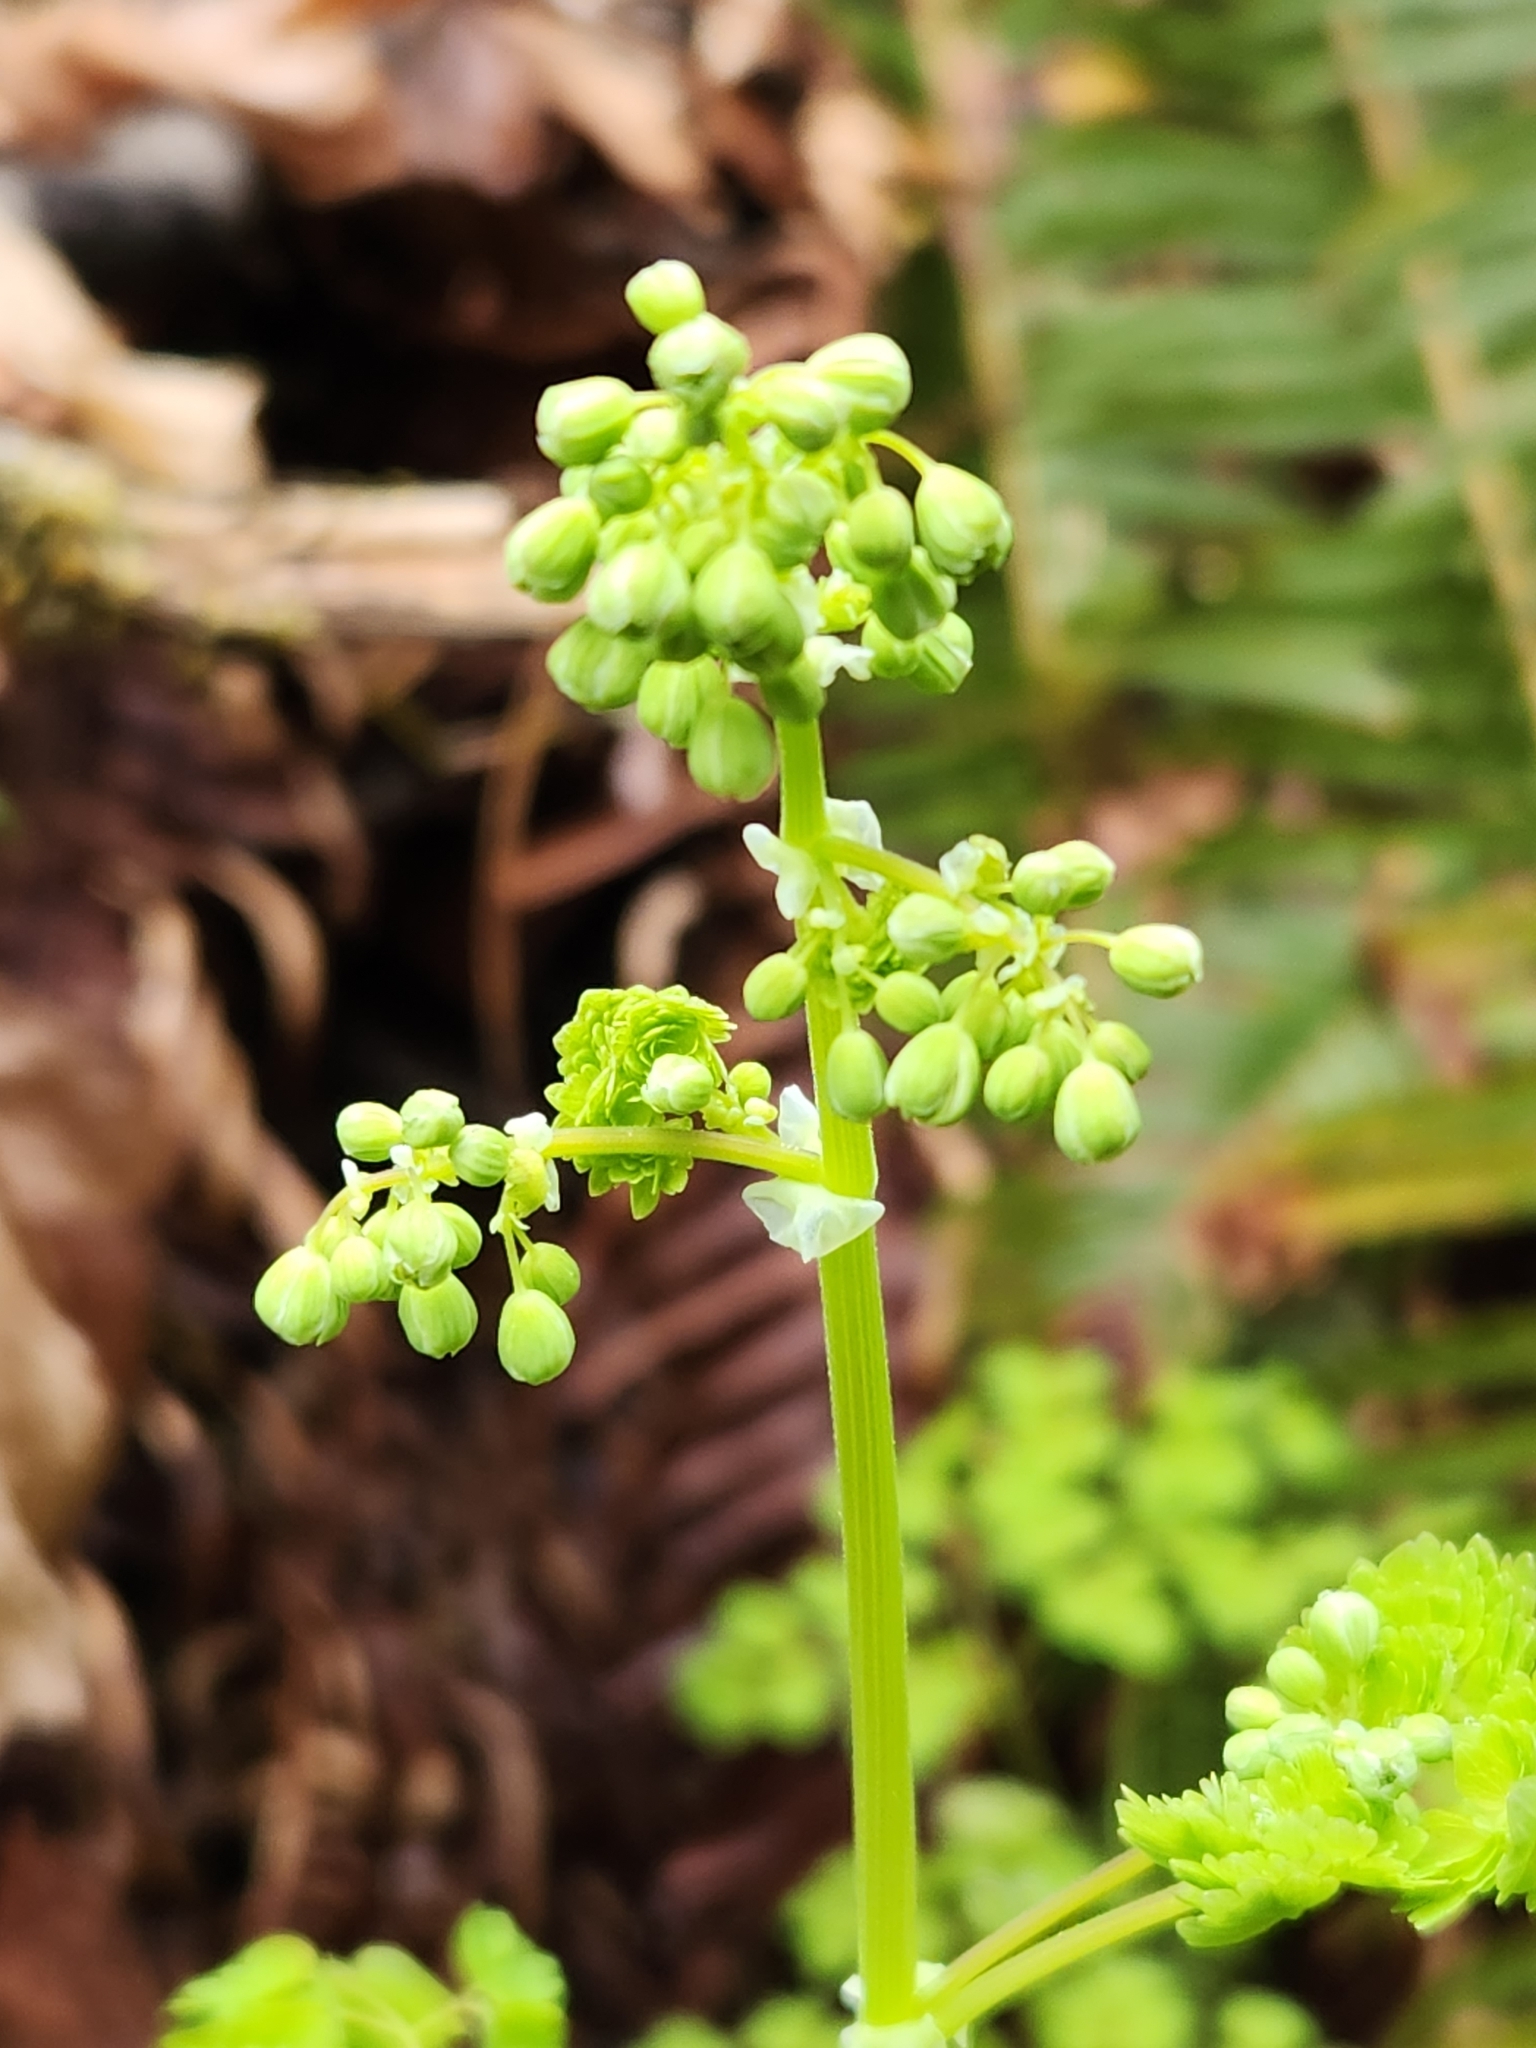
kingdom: Plantae
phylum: Tracheophyta
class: Magnoliopsida
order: Ranunculales
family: Ranunculaceae
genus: Thalictrum
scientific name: Thalictrum occidentale
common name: Western meadow-rue
